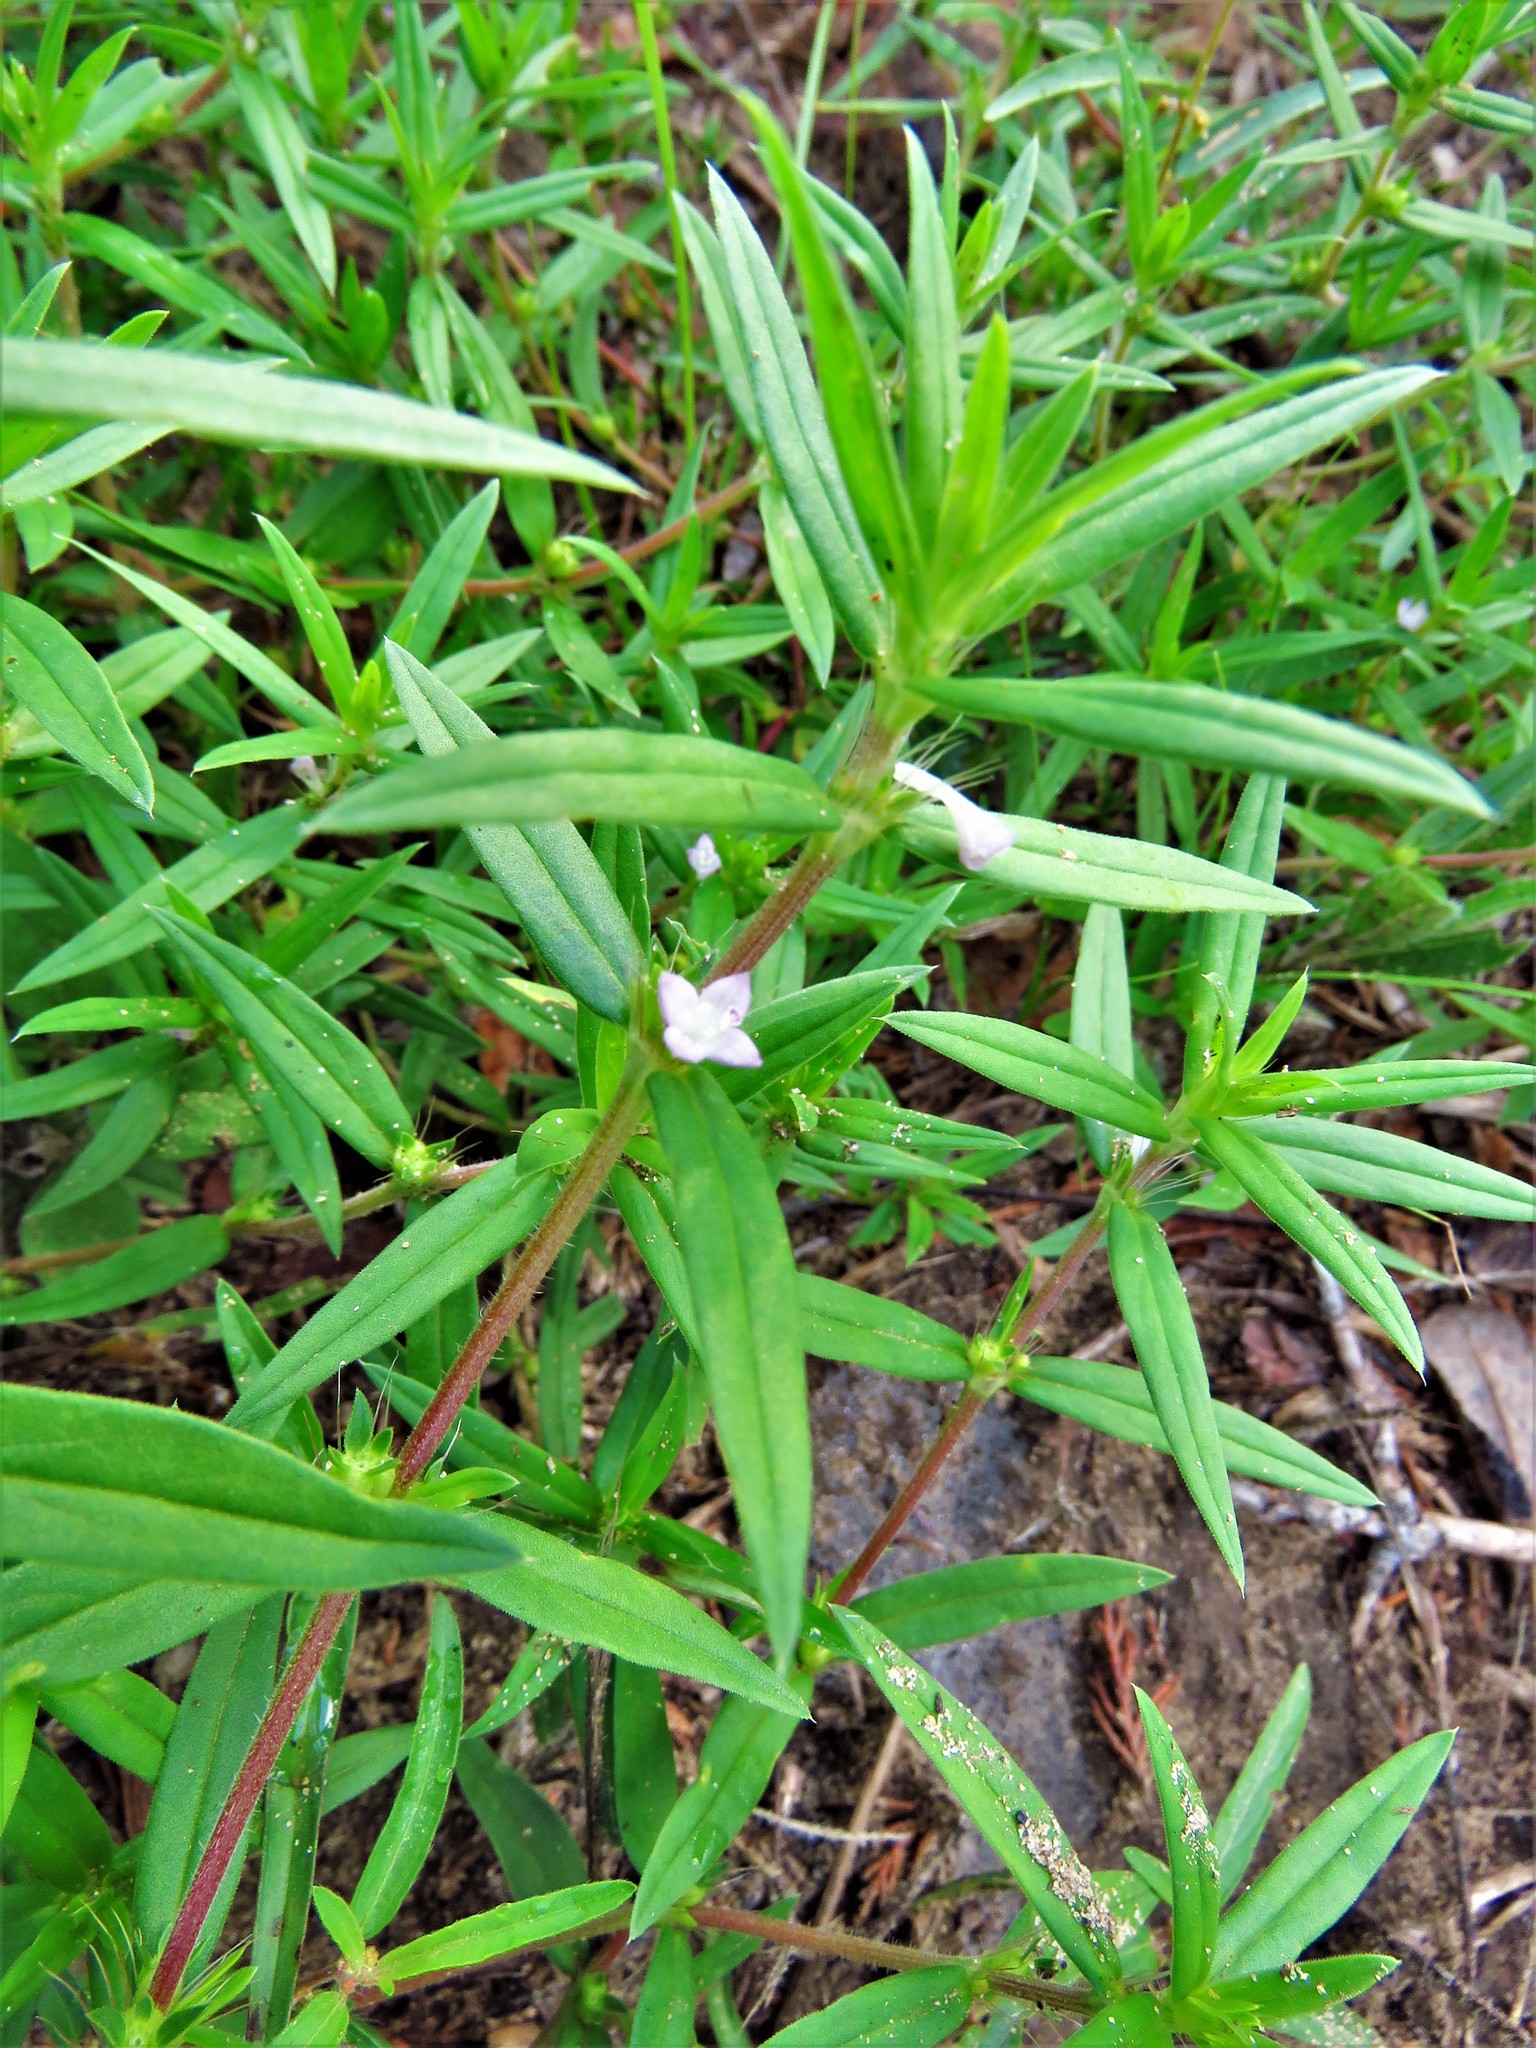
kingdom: Plantae
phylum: Tracheophyta
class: Magnoliopsida
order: Gentianales
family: Rubiaceae
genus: Hexasepalum
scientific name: Hexasepalum teres
